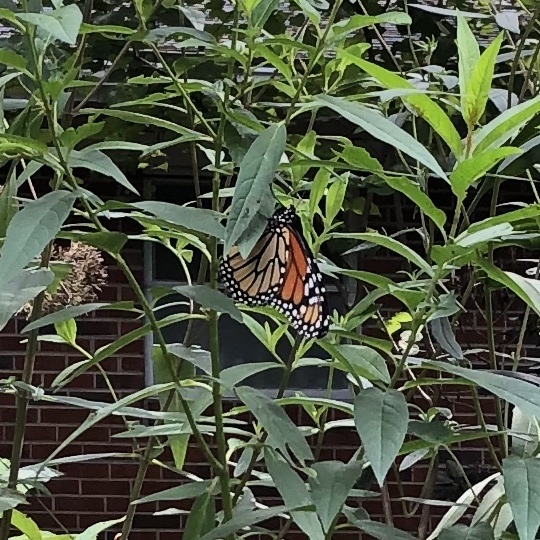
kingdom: Animalia
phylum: Arthropoda
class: Insecta
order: Lepidoptera
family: Nymphalidae
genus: Danaus
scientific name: Danaus plexippus
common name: Monarch
